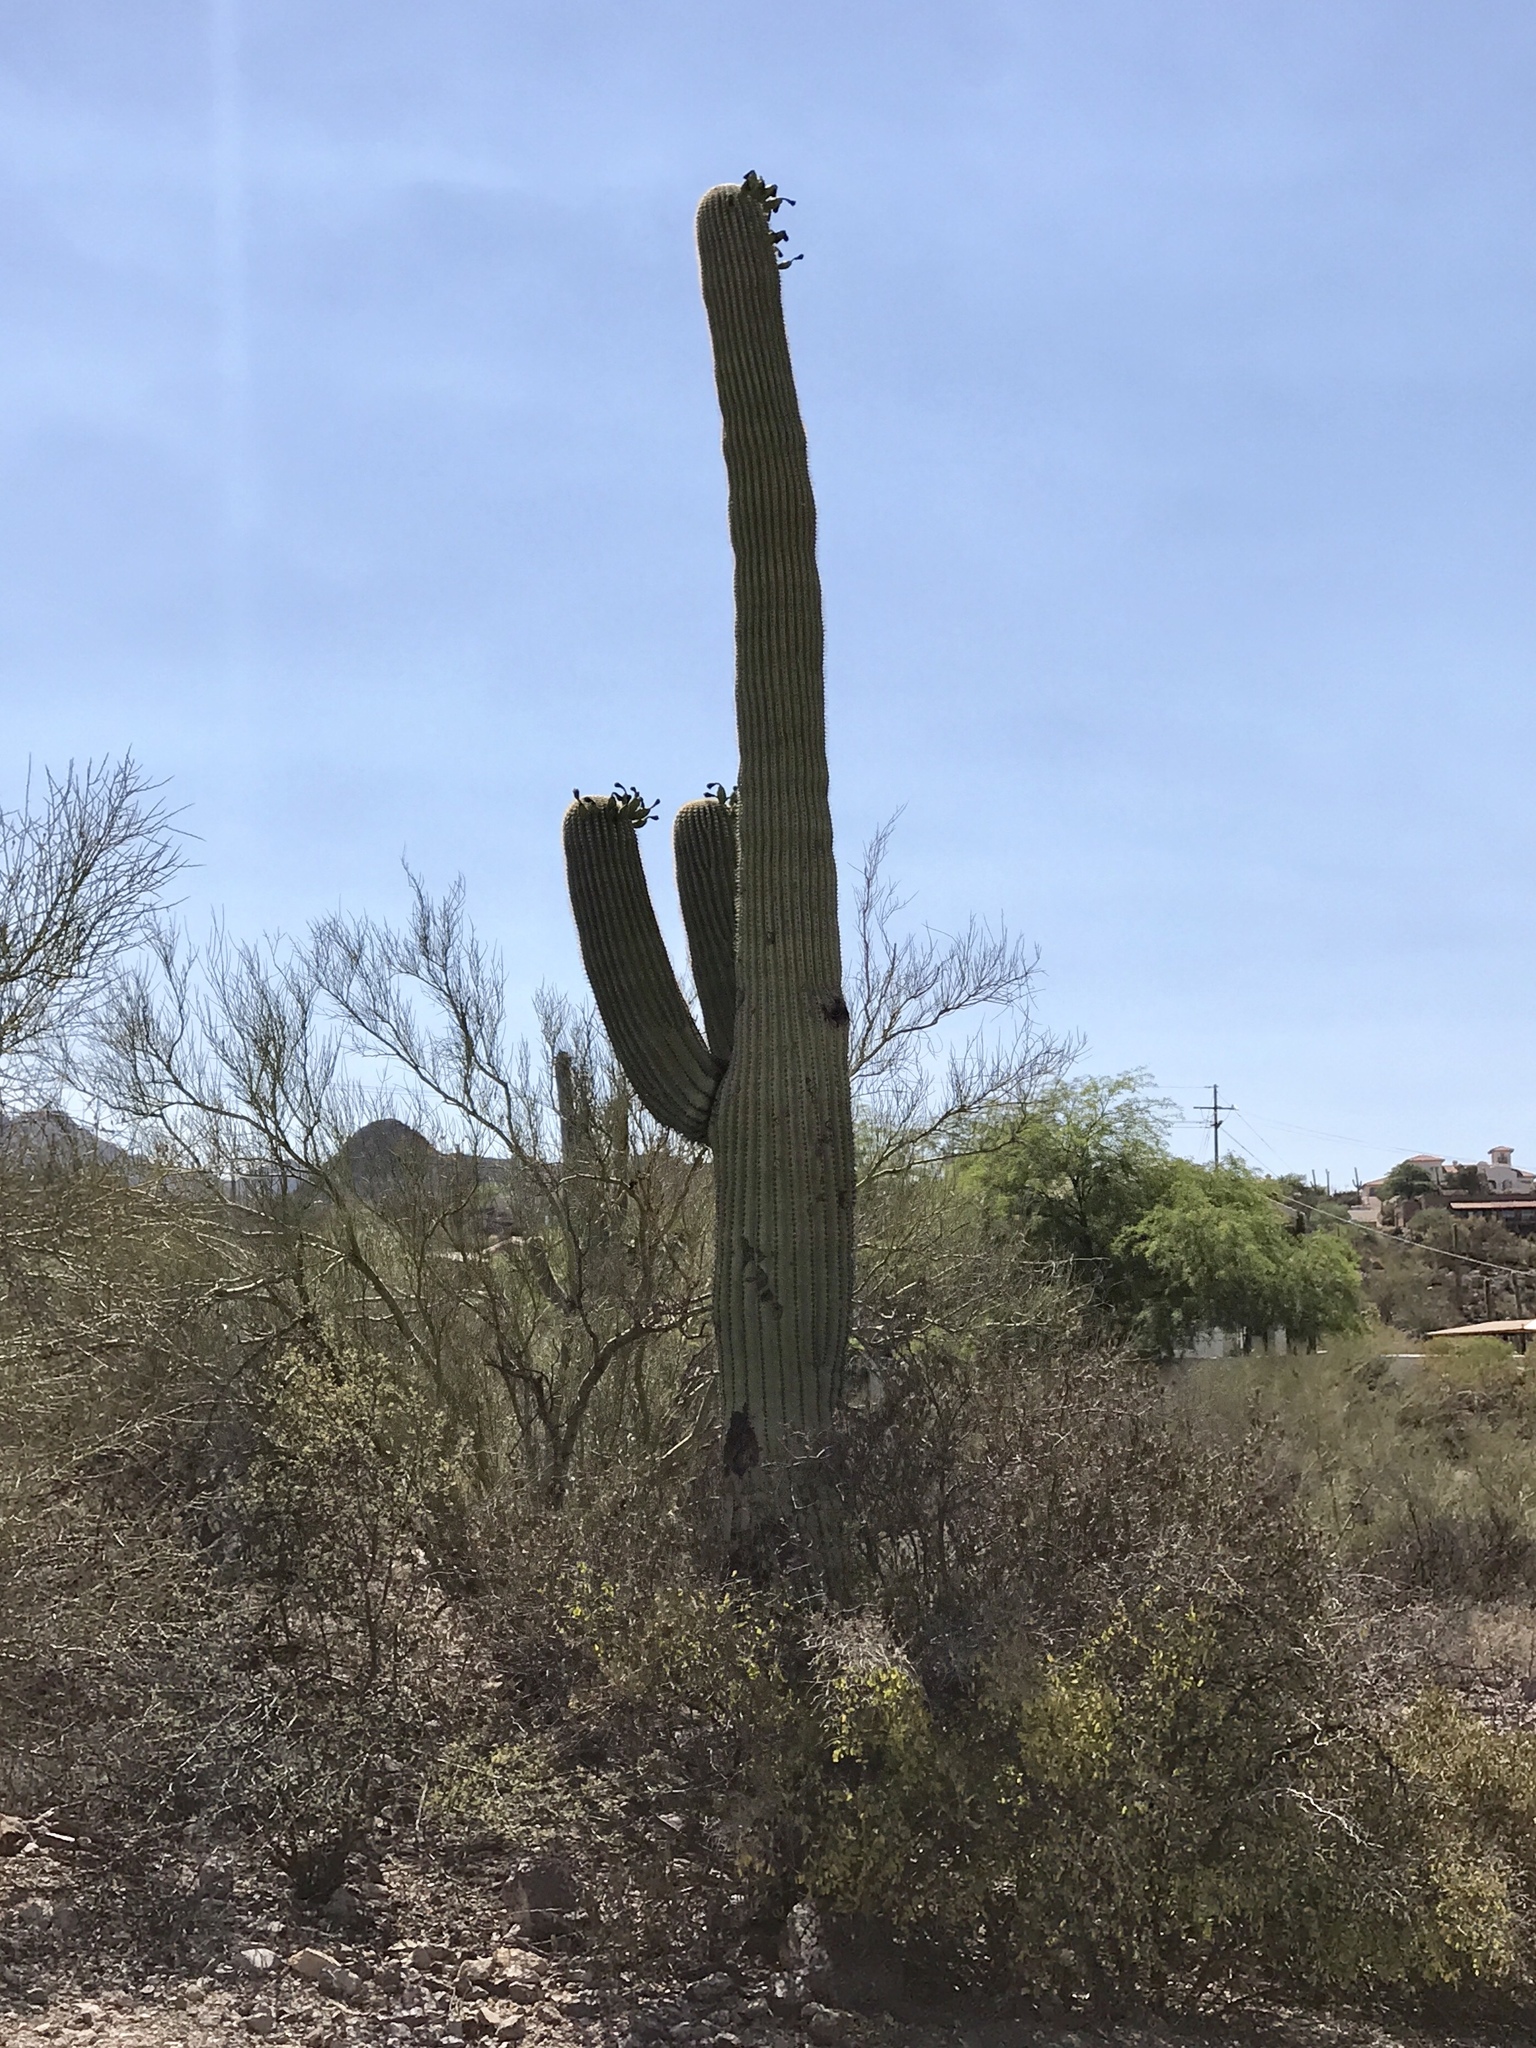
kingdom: Plantae
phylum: Tracheophyta
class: Magnoliopsida
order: Caryophyllales
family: Cactaceae
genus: Carnegiea
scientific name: Carnegiea gigantea
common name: Saguaro
